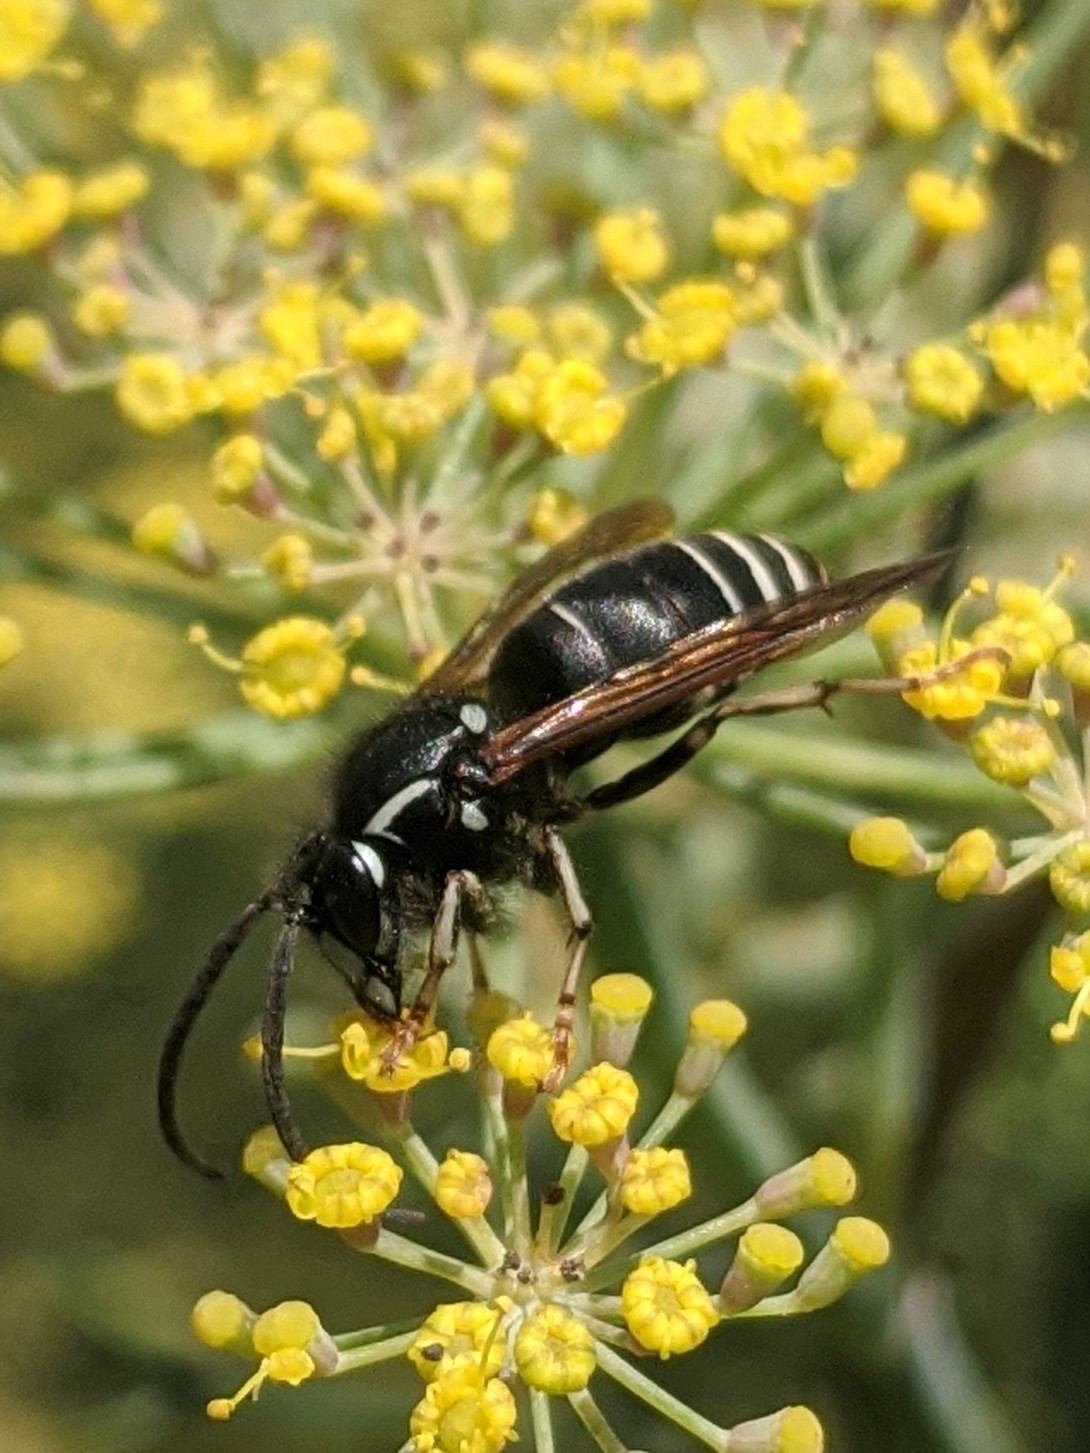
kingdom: Animalia
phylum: Arthropoda
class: Insecta
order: Hymenoptera
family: Vespidae
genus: Dolichovespula
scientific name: Dolichovespula adulterina
